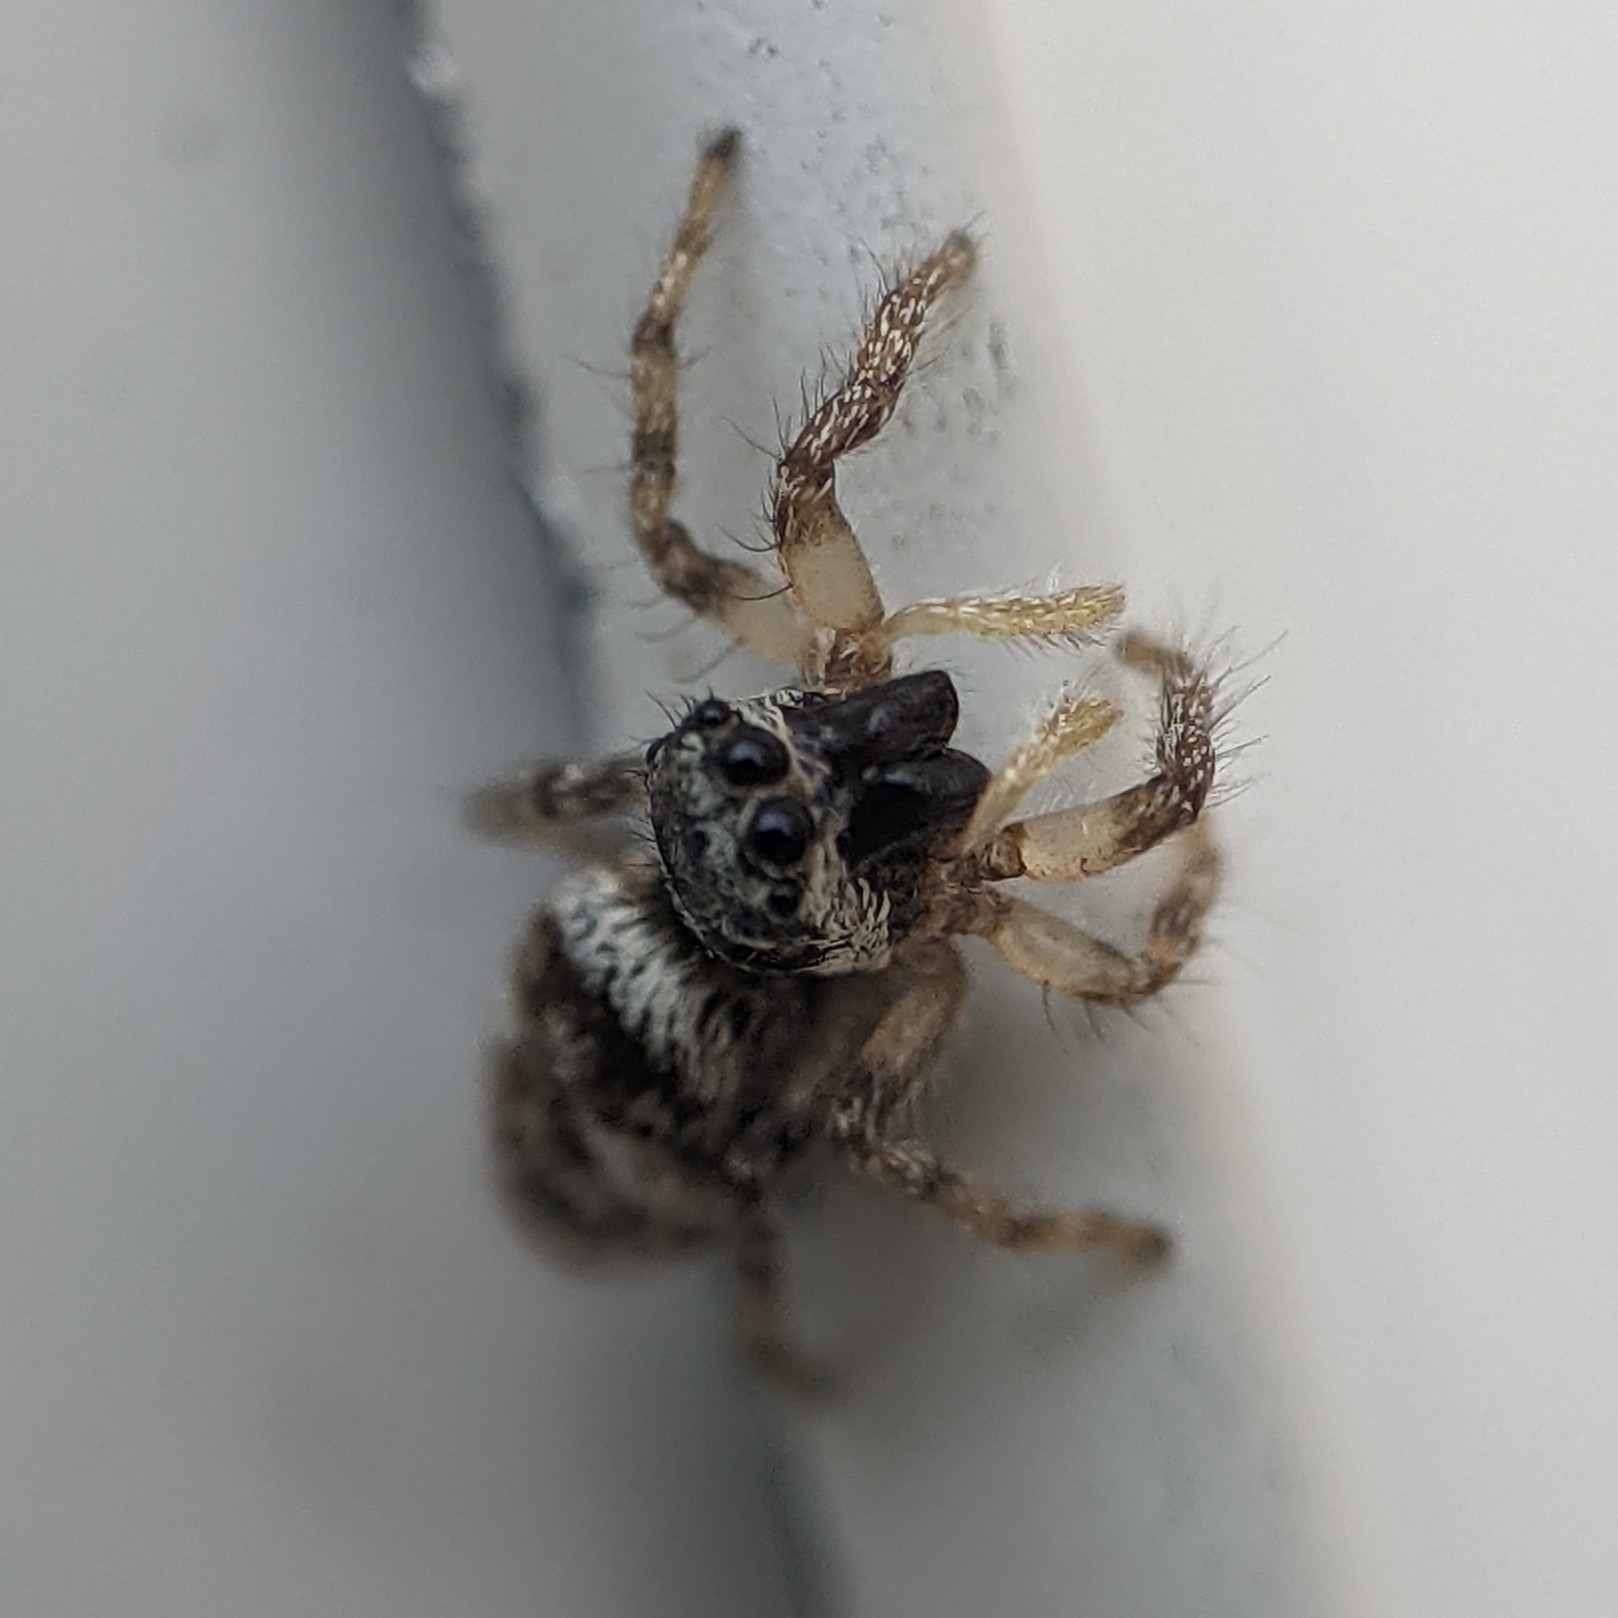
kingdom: Animalia
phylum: Arthropoda
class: Arachnida
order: Araneae
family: Salticidae
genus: Salticus
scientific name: Salticus scenicus
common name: Zebra jumper
